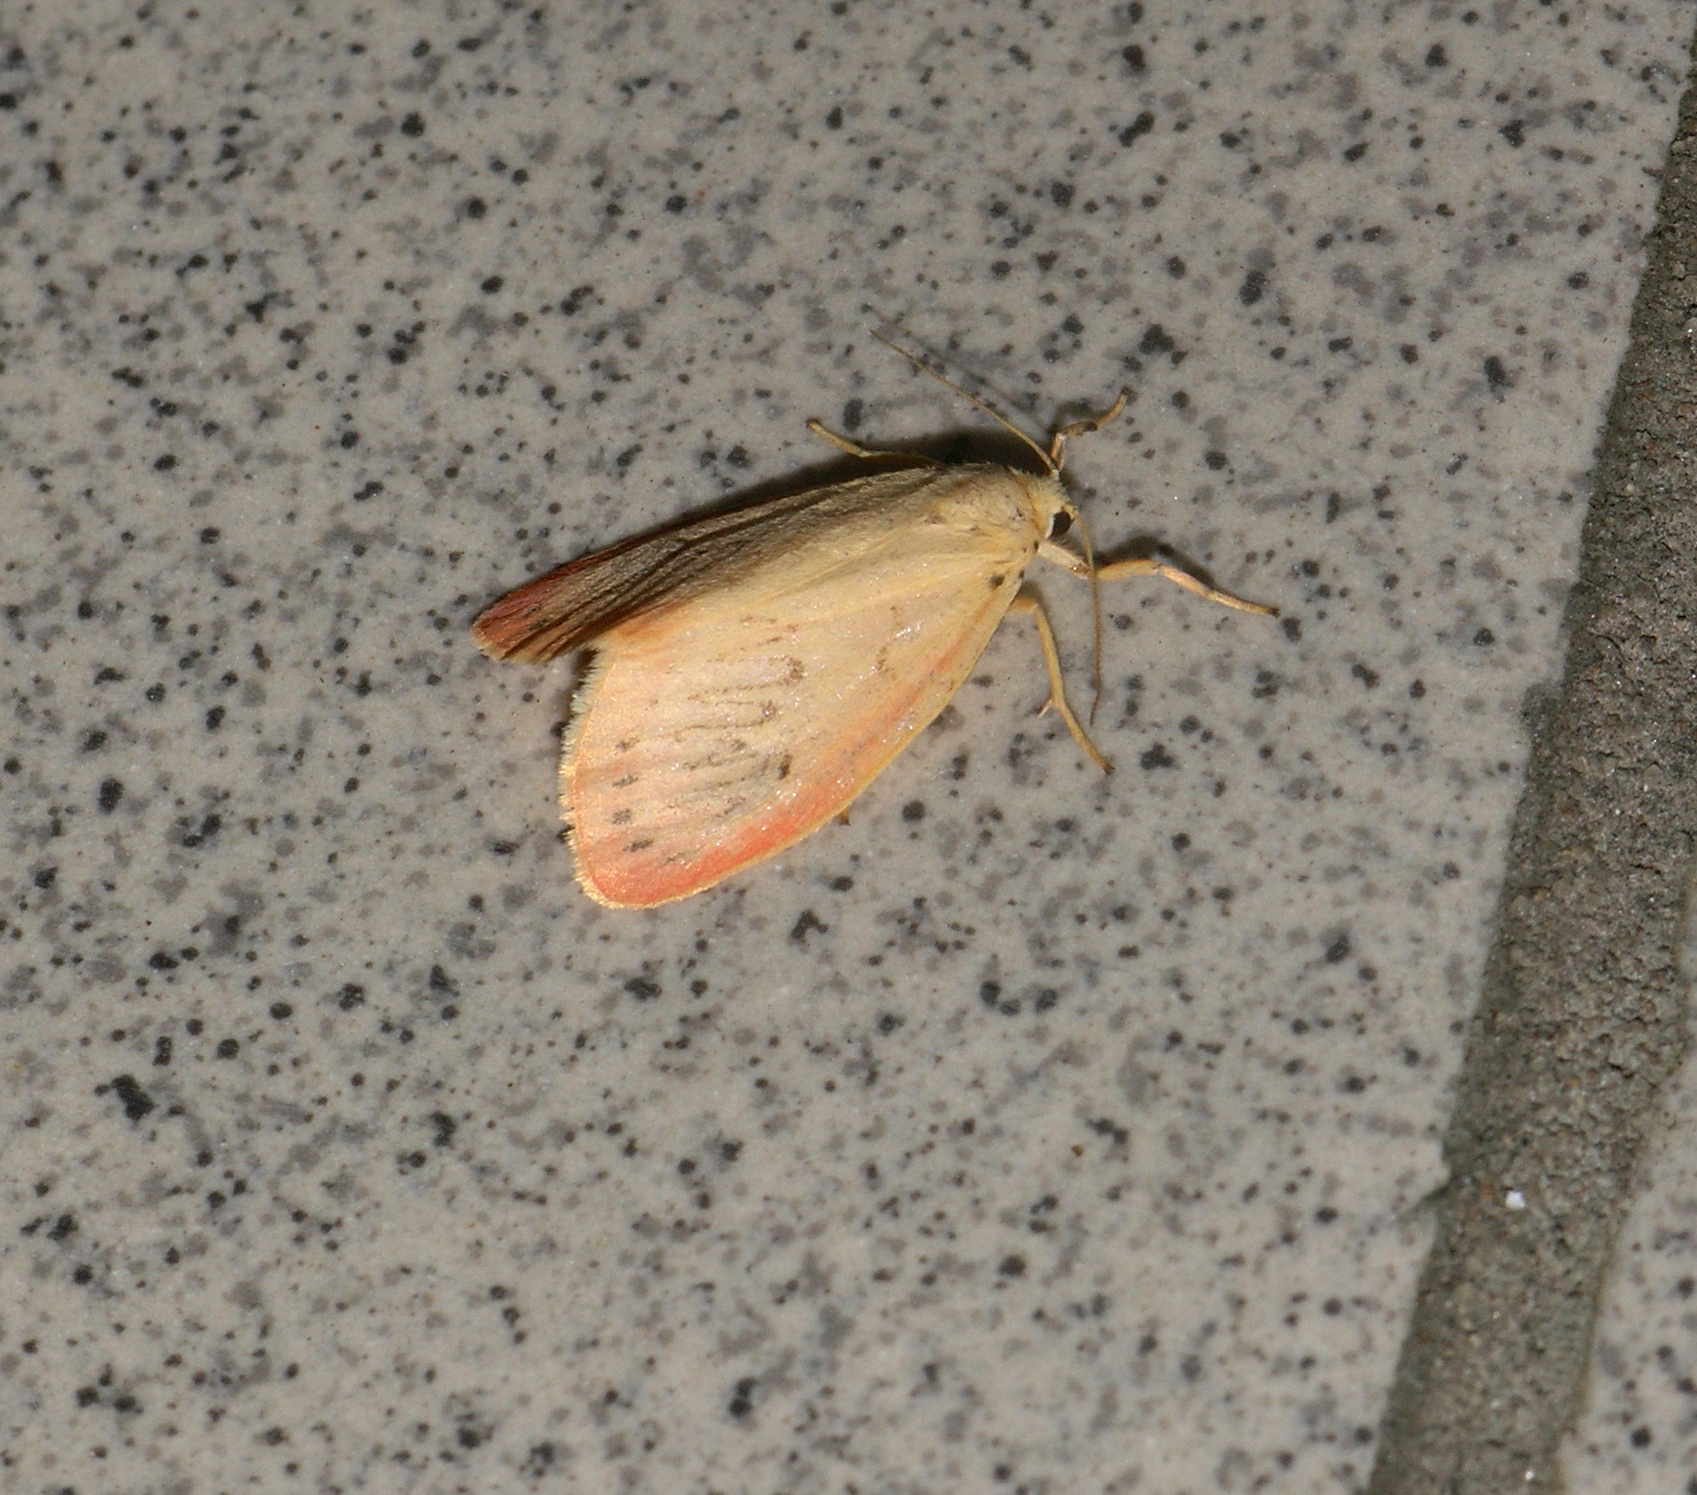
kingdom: Animalia
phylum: Arthropoda
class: Insecta
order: Lepidoptera
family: Erebidae
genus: Miltochrista
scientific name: Miltochrista miniata
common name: Rosy footman
